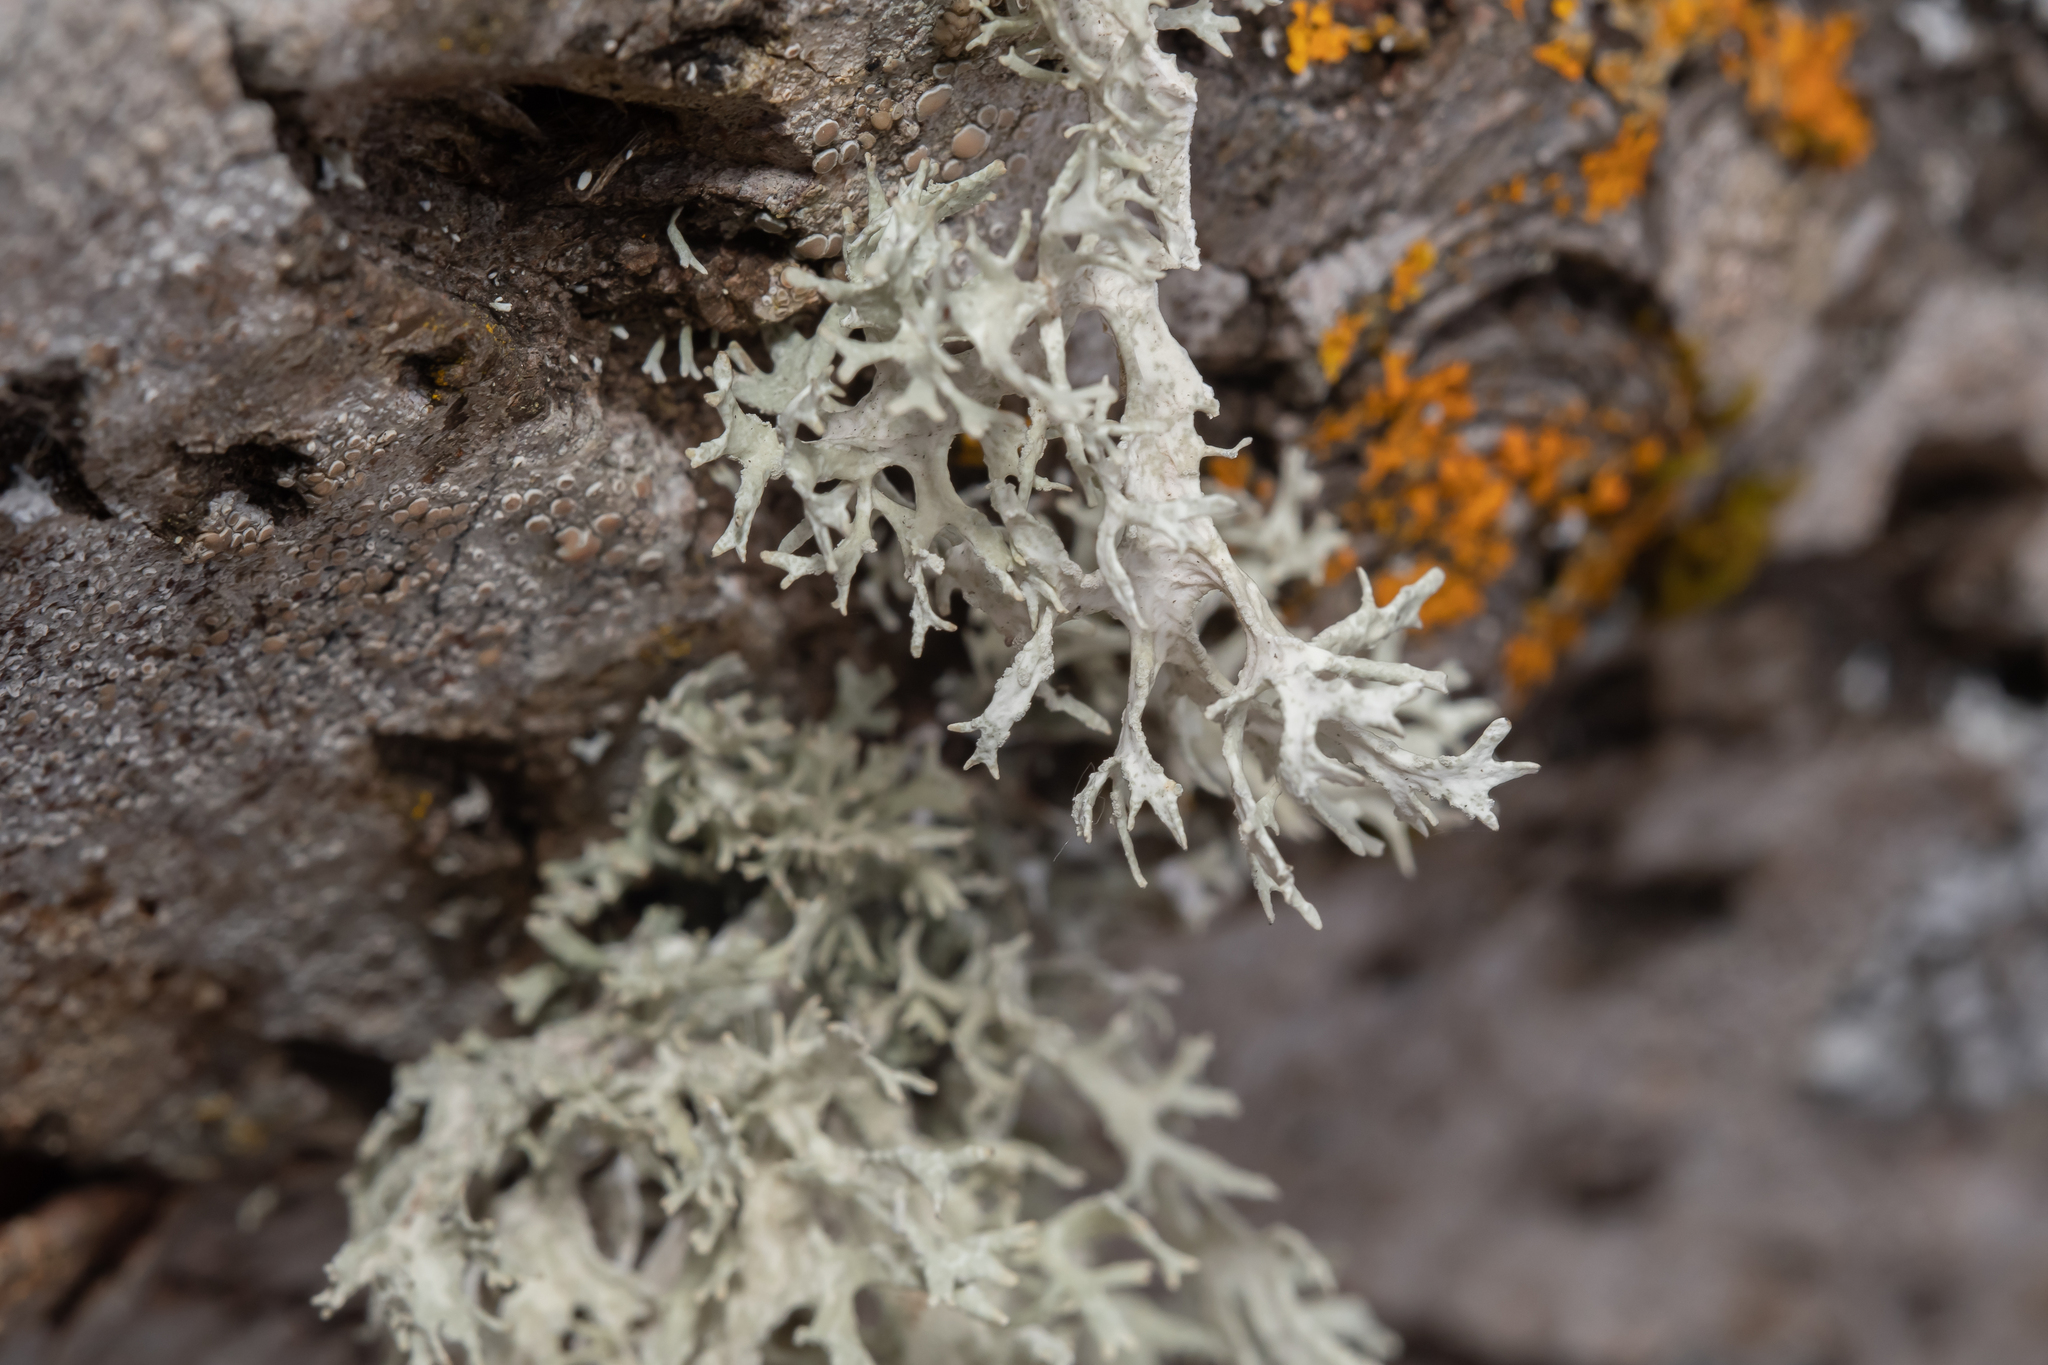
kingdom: Fungi
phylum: Ascomycota
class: Lecanoromycetes
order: Lecanorales
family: Parmeliaceae
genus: Evernia
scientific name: Evernia prunastri
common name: Oak moss
